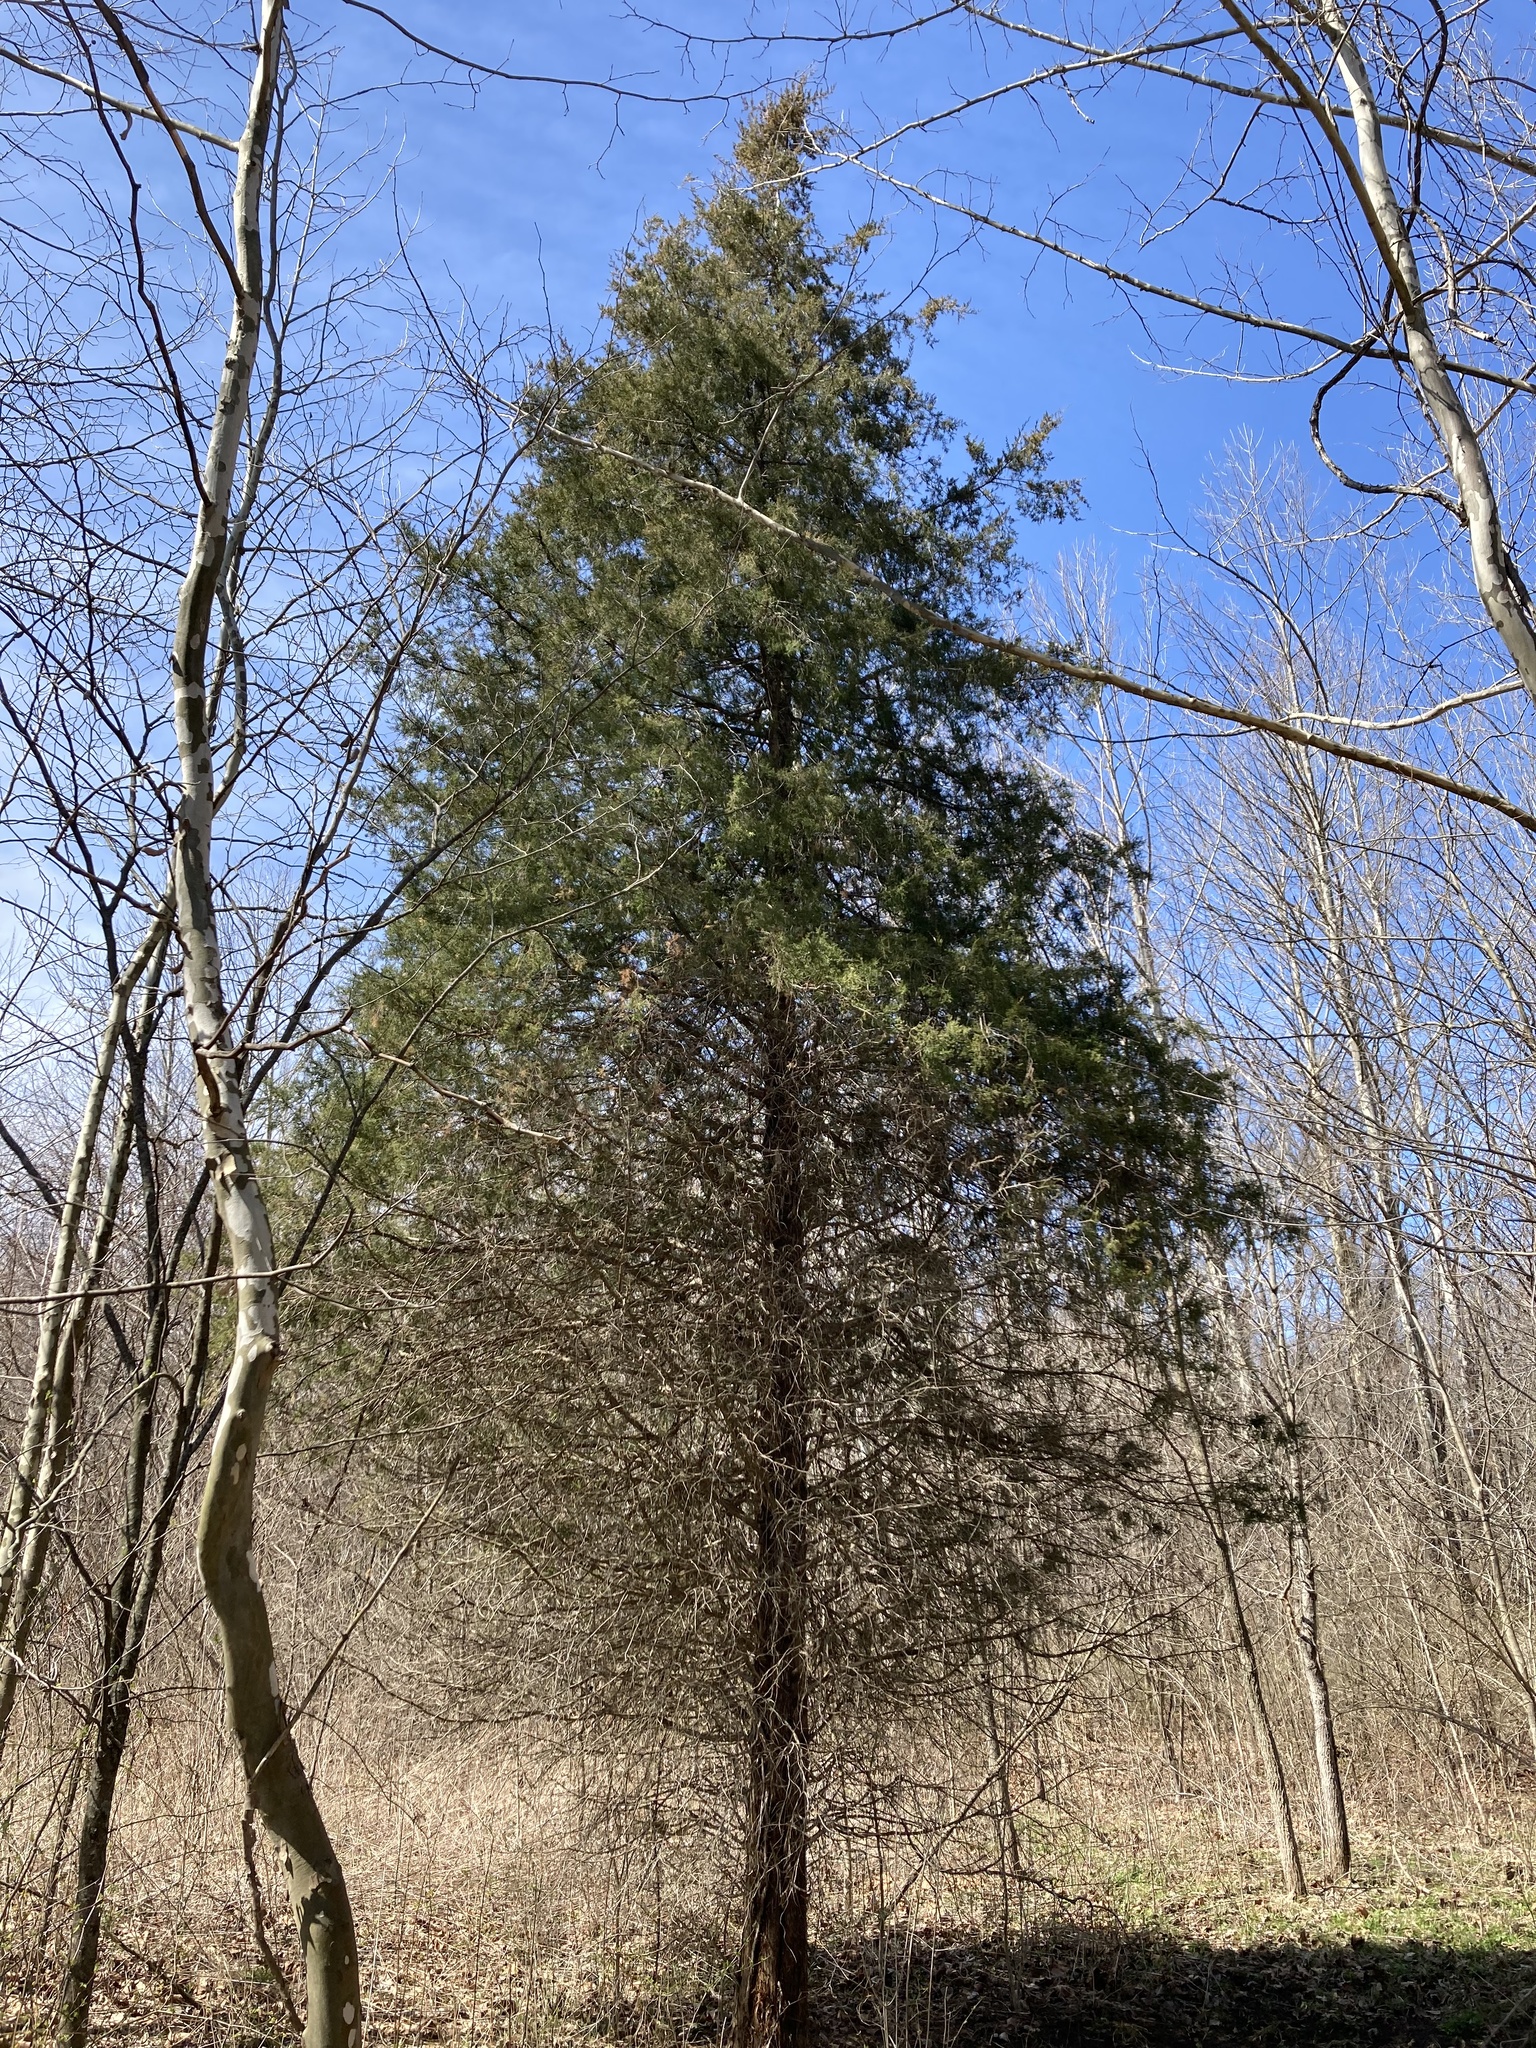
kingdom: Plantae
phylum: Tracheophyta
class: Pinopsida
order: Pinales
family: Cupressaceae
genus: Juniperus
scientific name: Juniperus virginiana
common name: Red juniper
